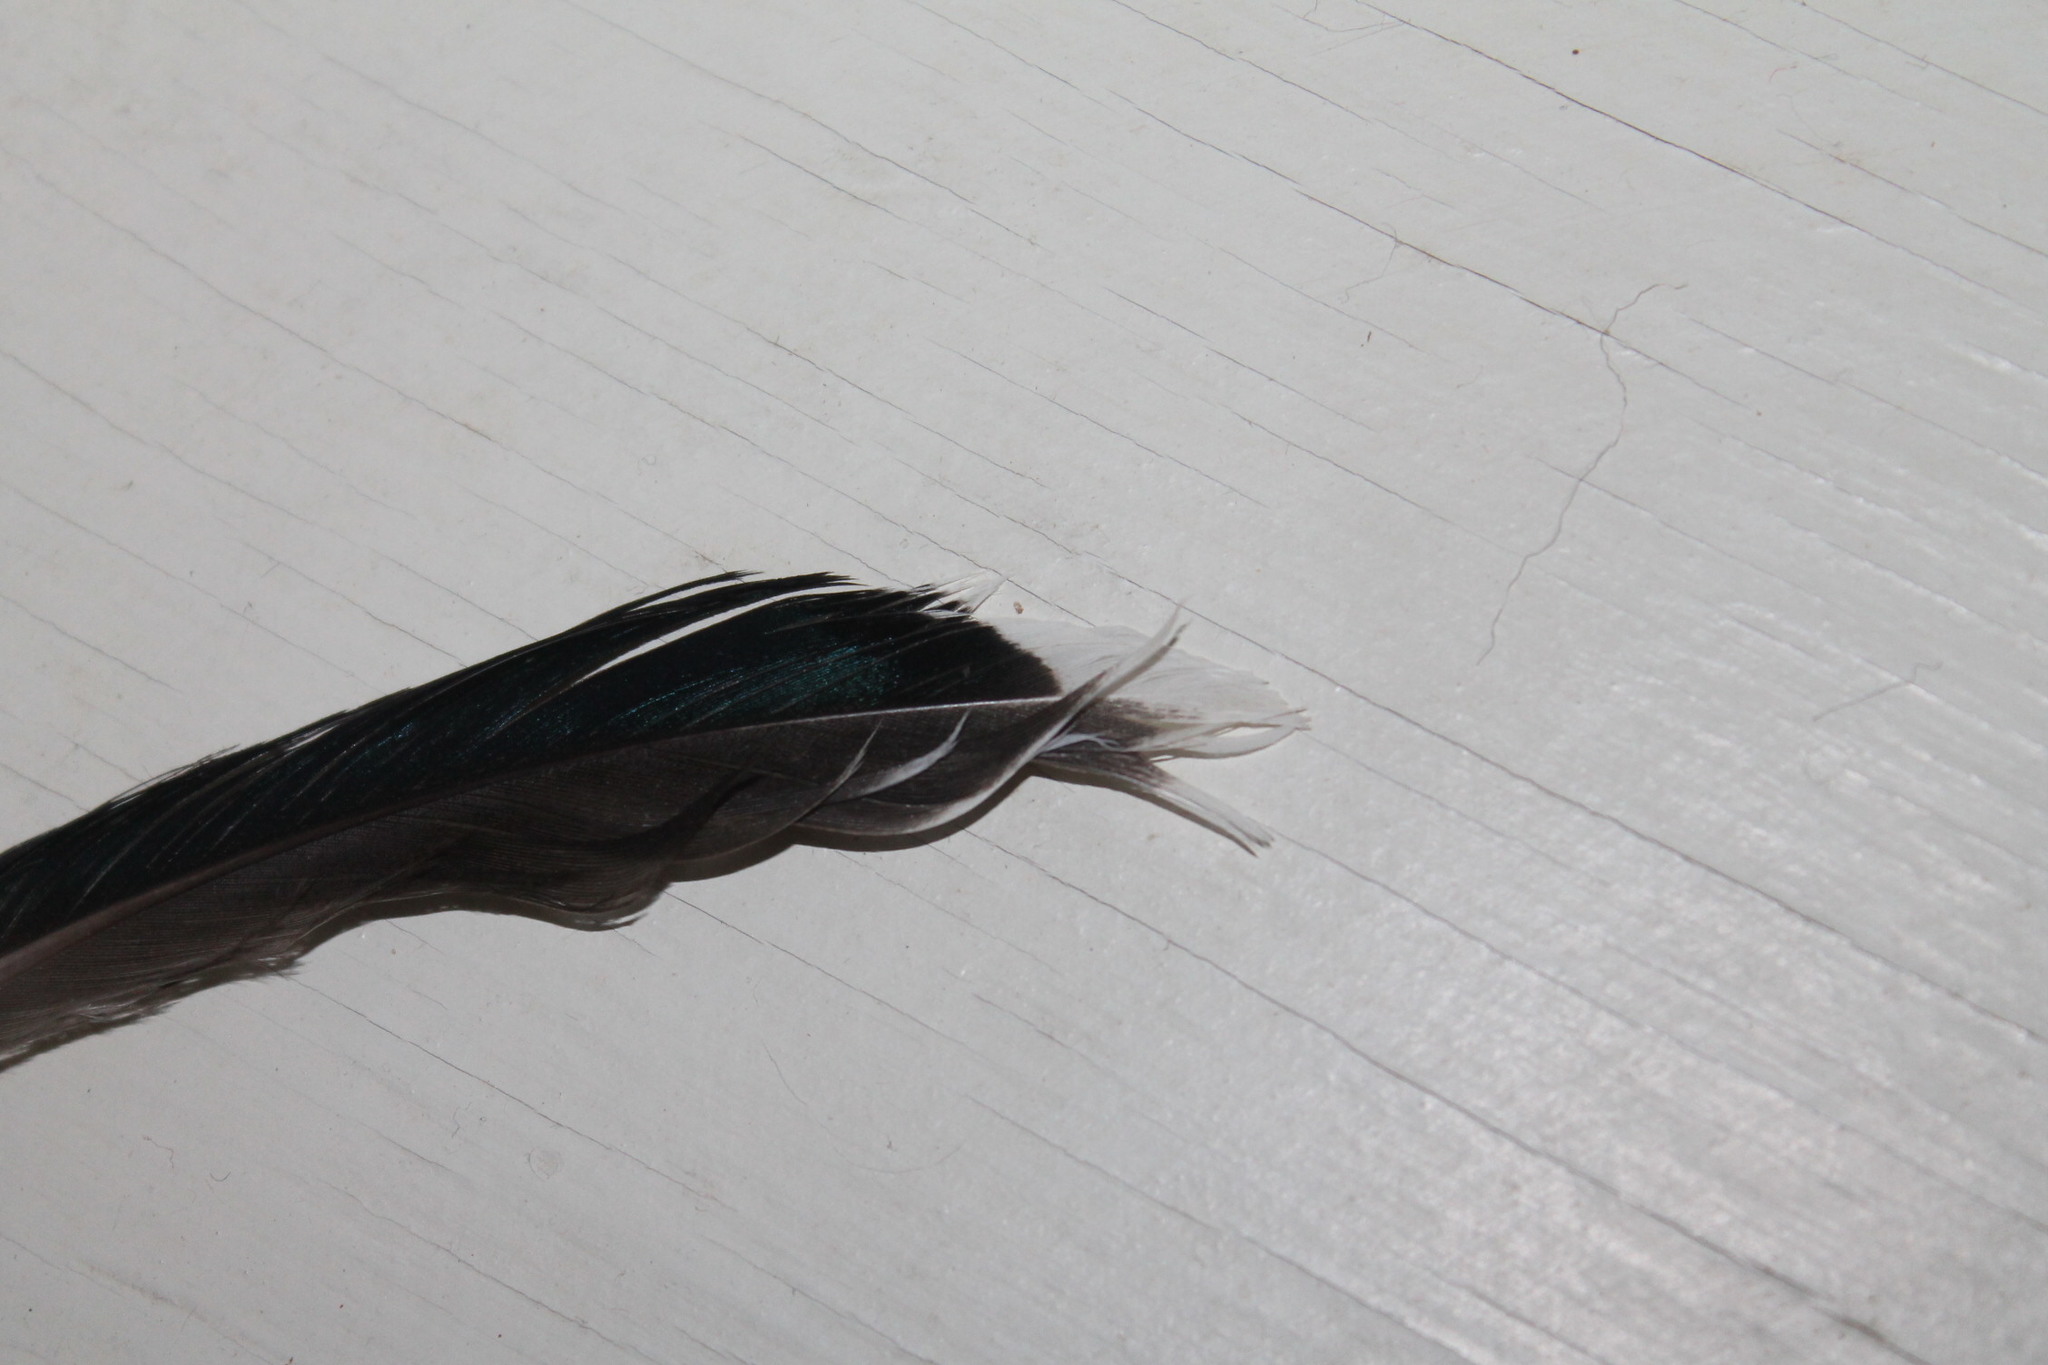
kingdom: Animalia
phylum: Chordata
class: Aves
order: Anseriformes
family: Anatidae
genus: Anas
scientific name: Anas platyrhynchos
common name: Mallard
